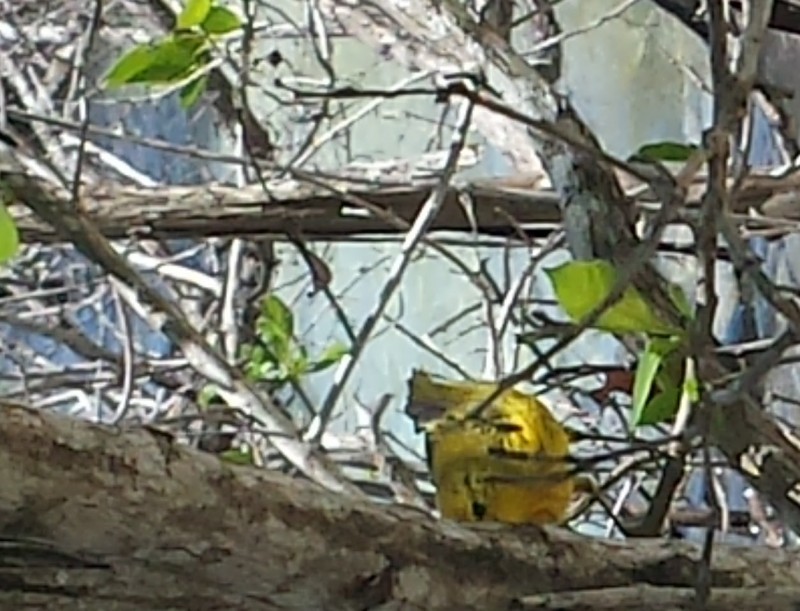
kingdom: Animalia
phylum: Chordata
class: Aves
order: Passeriformes
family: Parulidae
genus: Setophaga
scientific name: Setophaga petechia
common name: Yellow warbler
